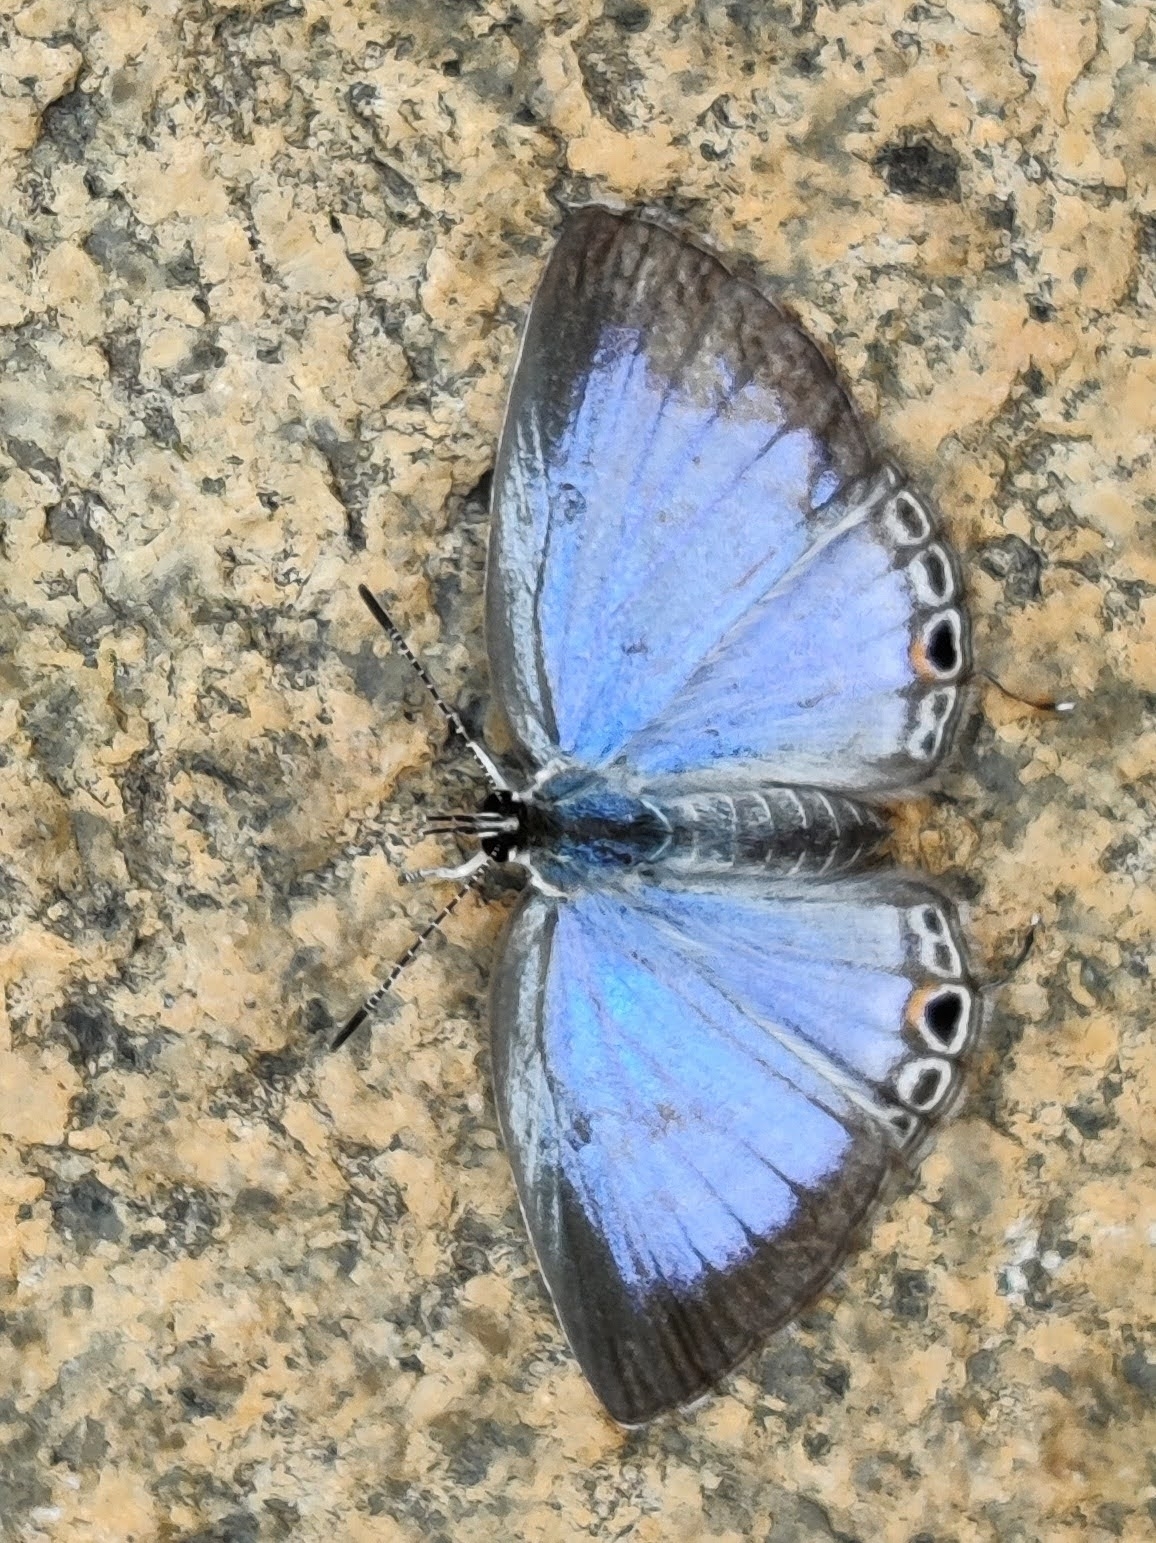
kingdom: Animalia
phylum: Arthropoda
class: Insecta
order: Lepidoptera
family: Lycaenidae
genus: Luthrodes
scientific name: Luthrodes pandava
